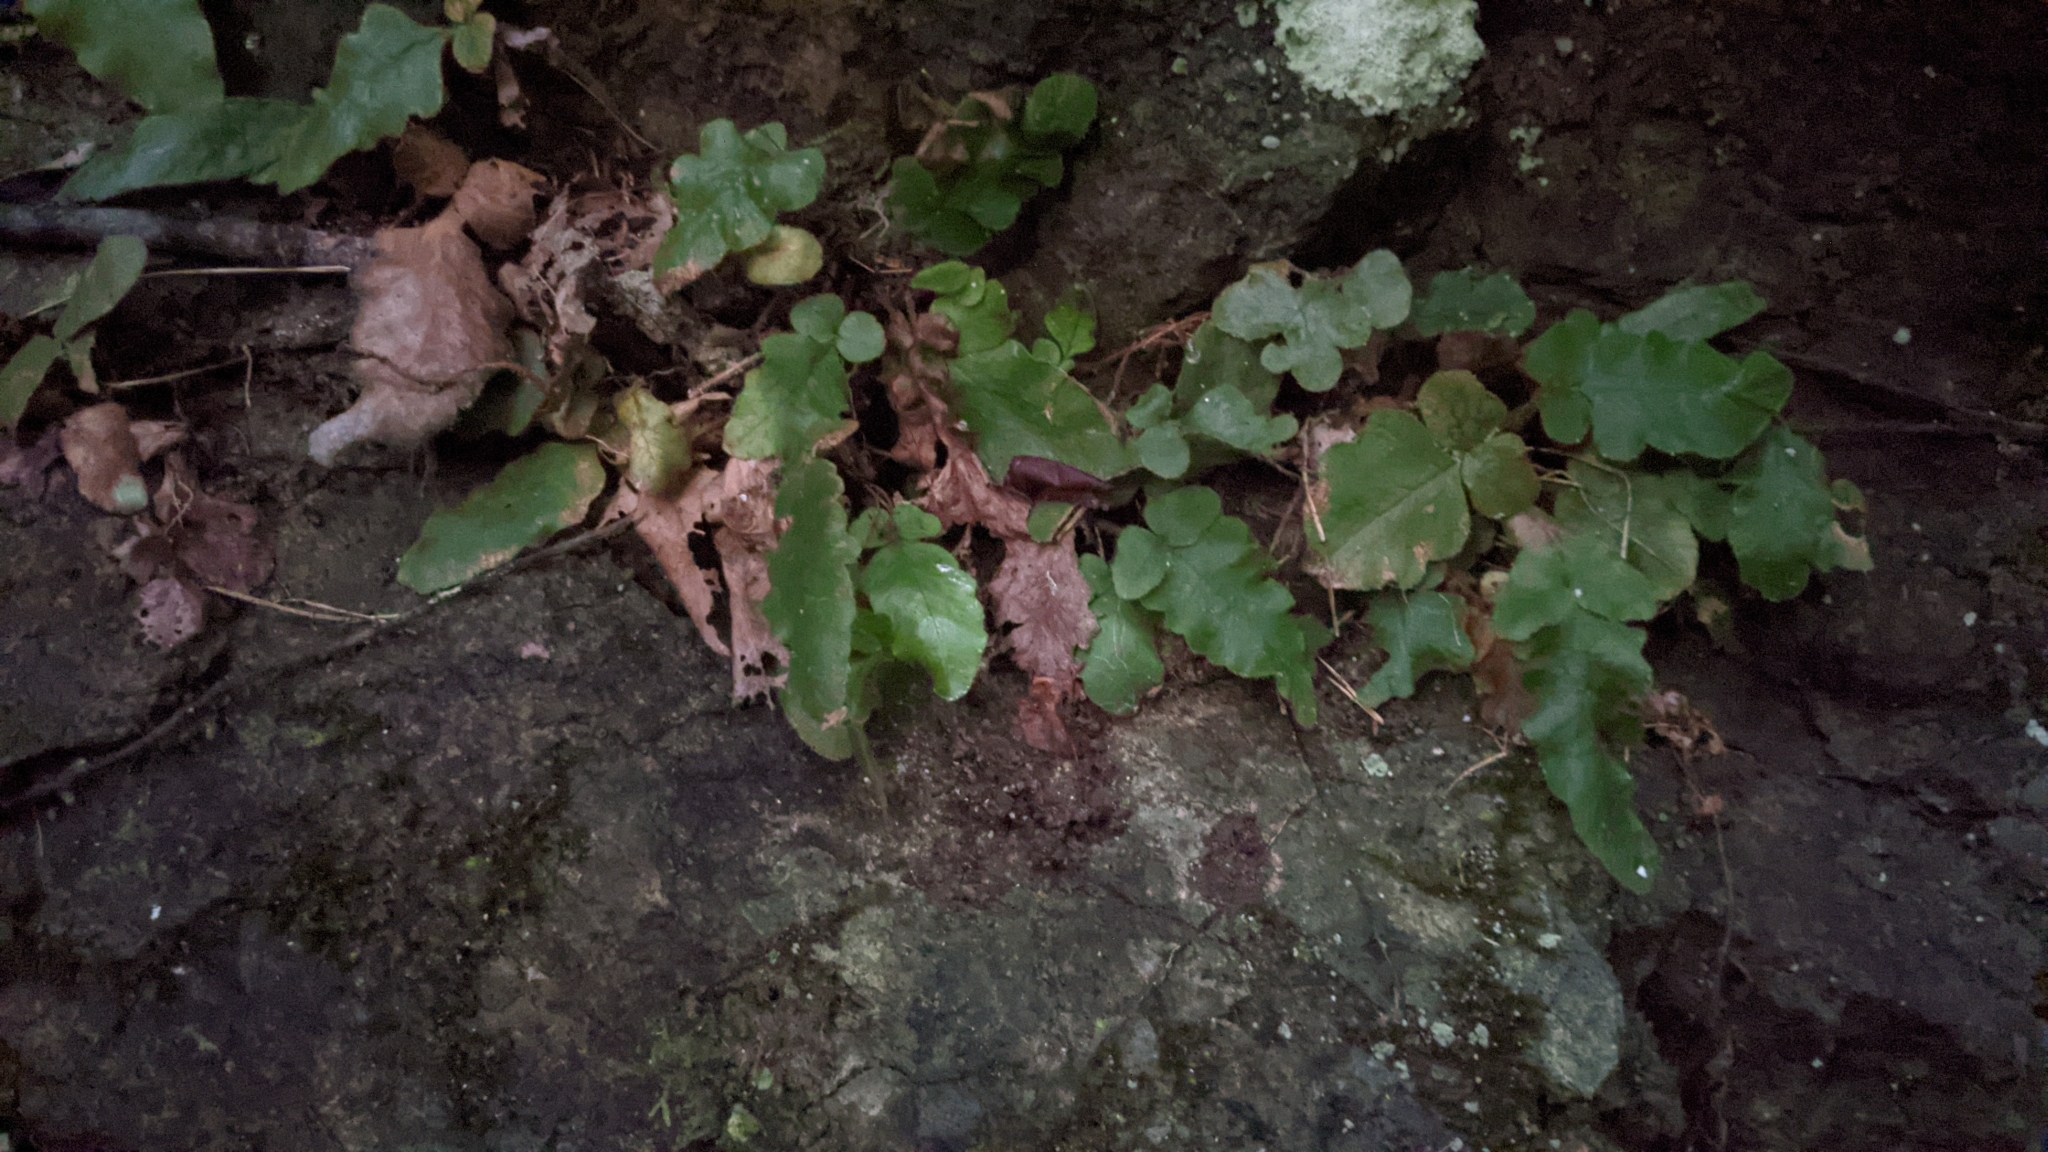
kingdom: Plantae
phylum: Tracheophyta
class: Polypodiopsida
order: Polypodiales
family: Tectariaceae
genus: Tectaria
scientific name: Tectaria zeilanica
